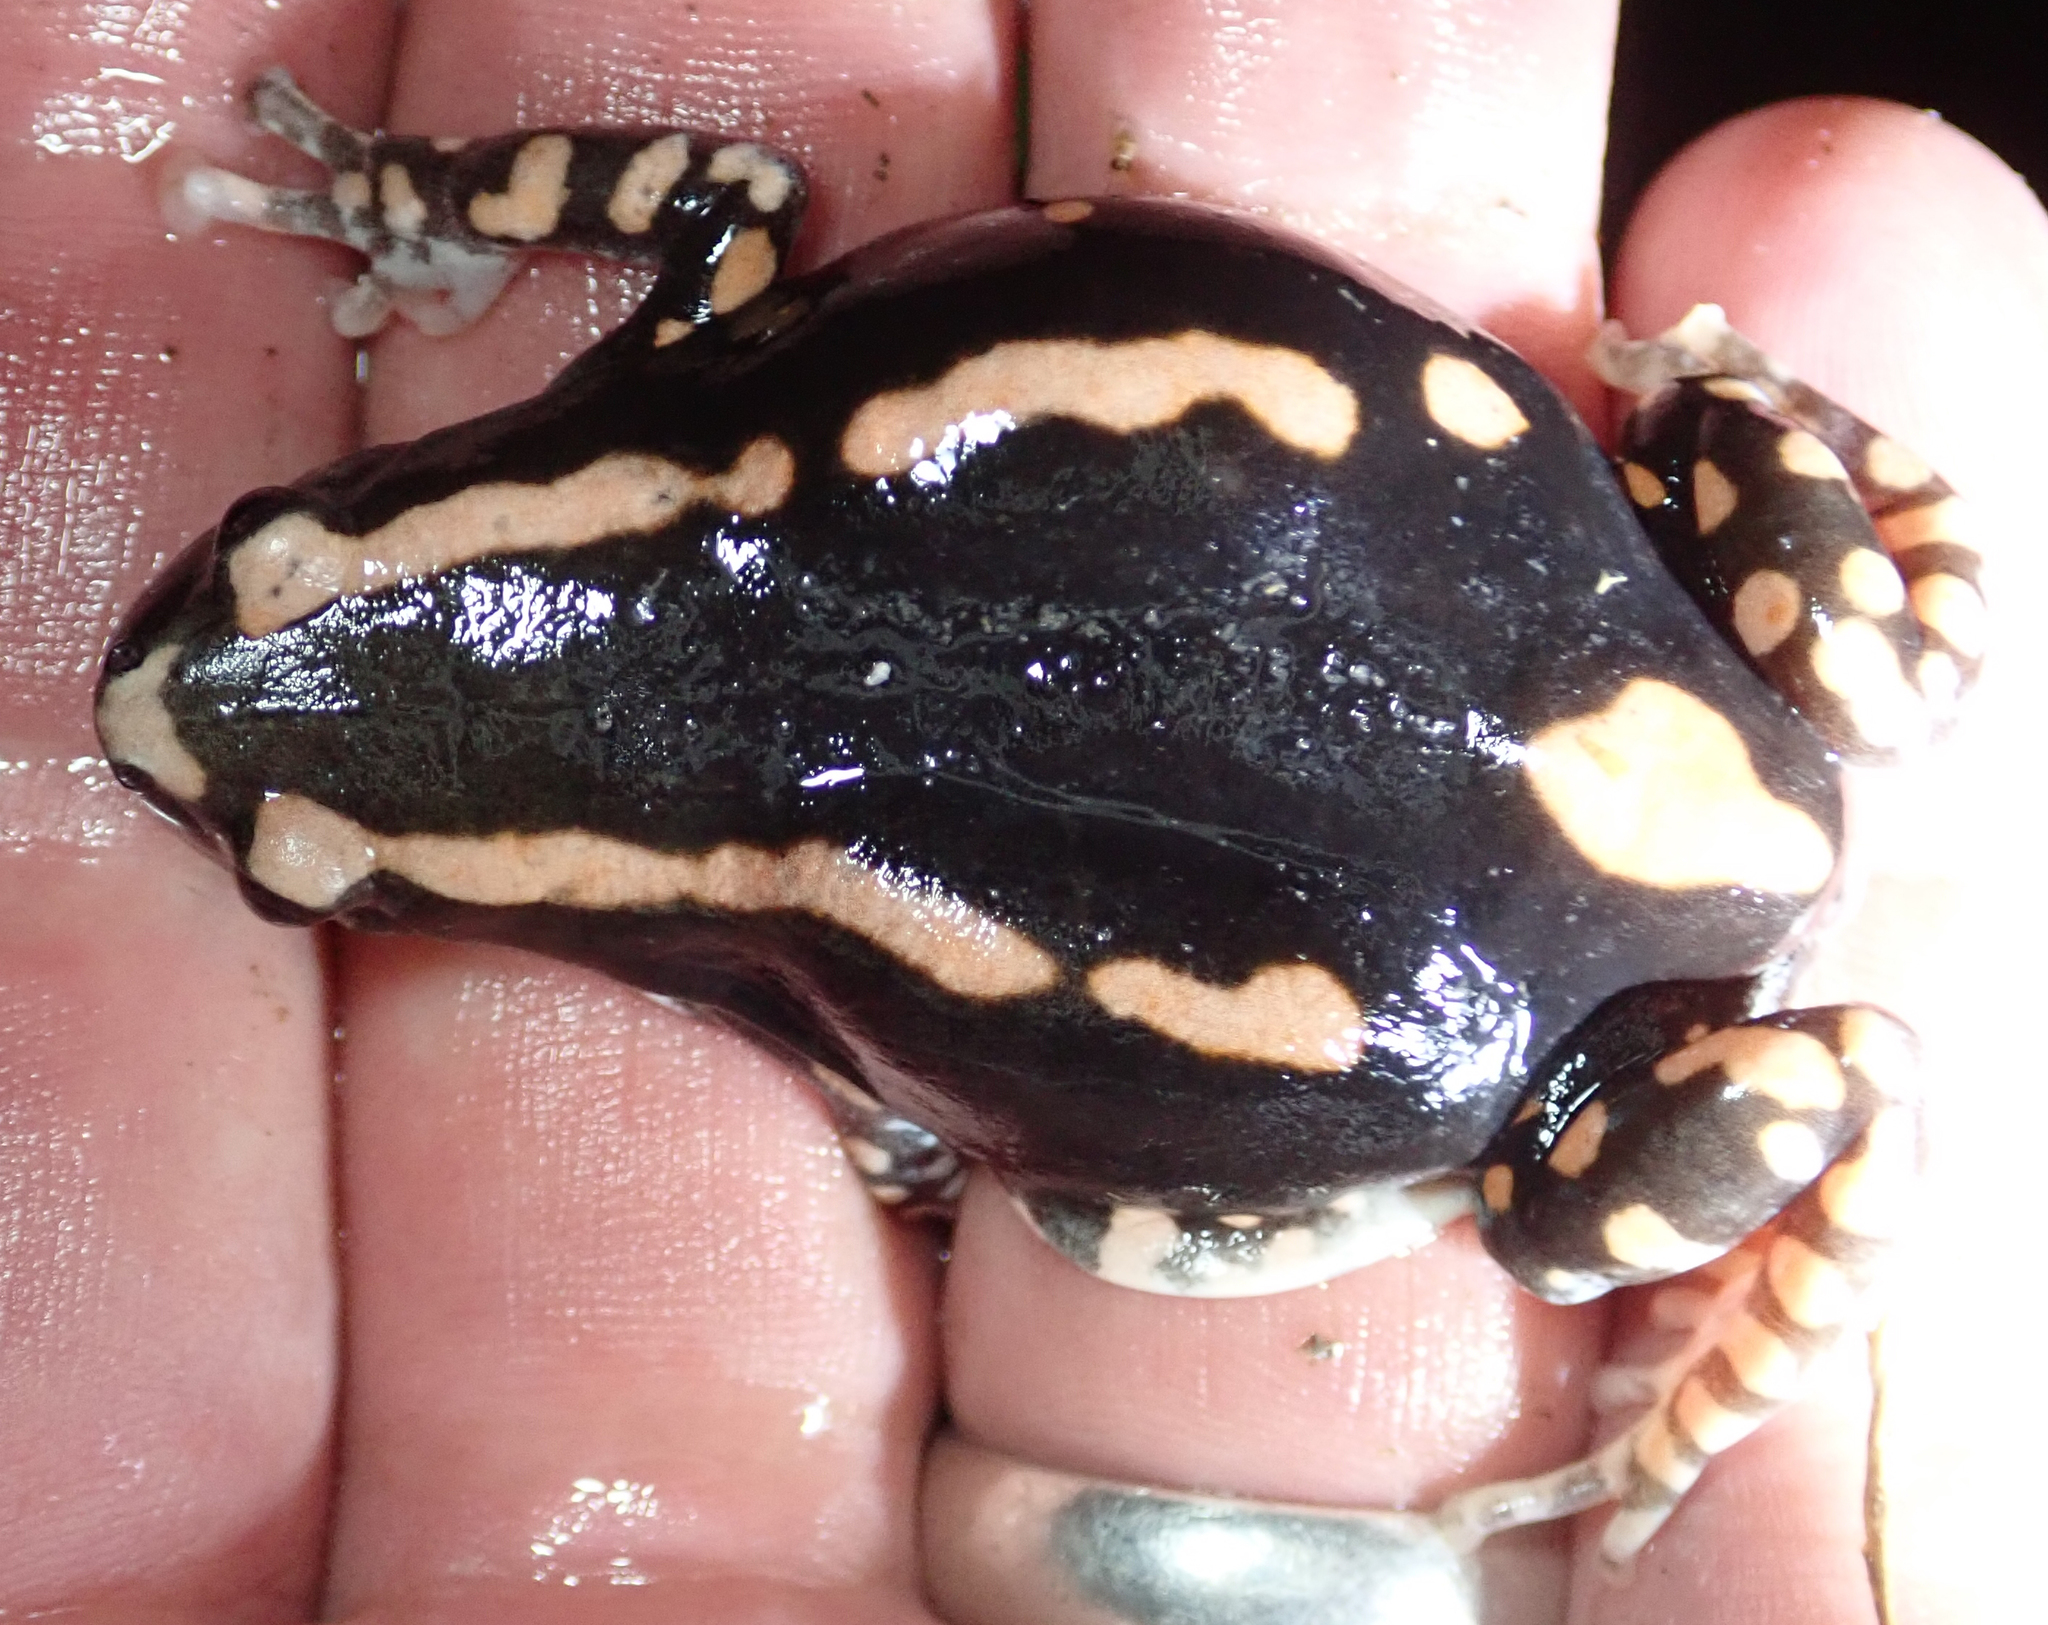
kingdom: Animalia
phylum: Chordata
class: Amphibia
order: Anura
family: Microhylidae
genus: Phrynomantis
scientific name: Phrynomantis bifasciatus
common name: Banded rubber frog
